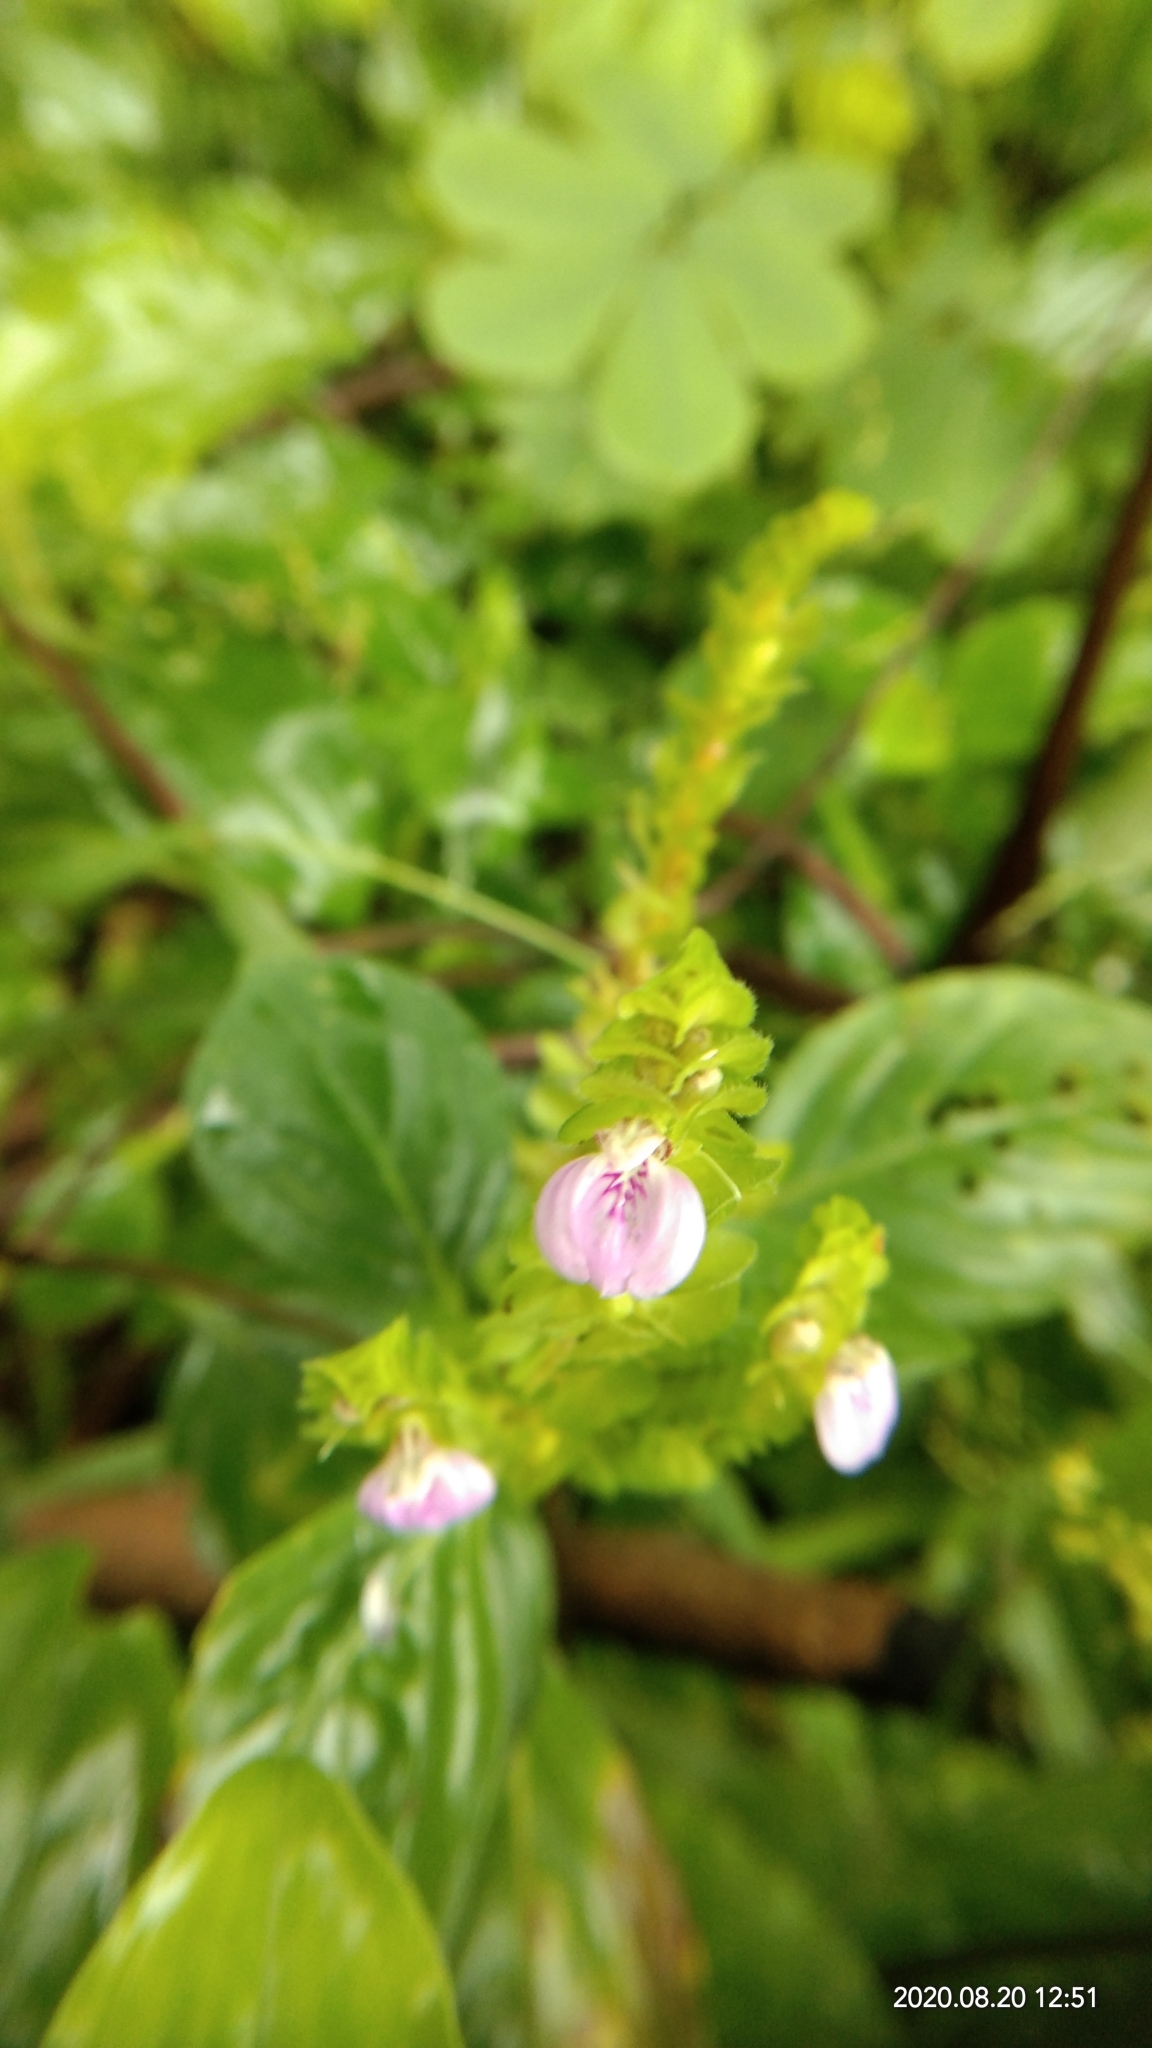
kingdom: Plantae
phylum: Tracheophyta
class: Magnoliopsida
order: Lamiales
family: Acanthaceae
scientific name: Acanthaceae
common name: Acanthaceae
